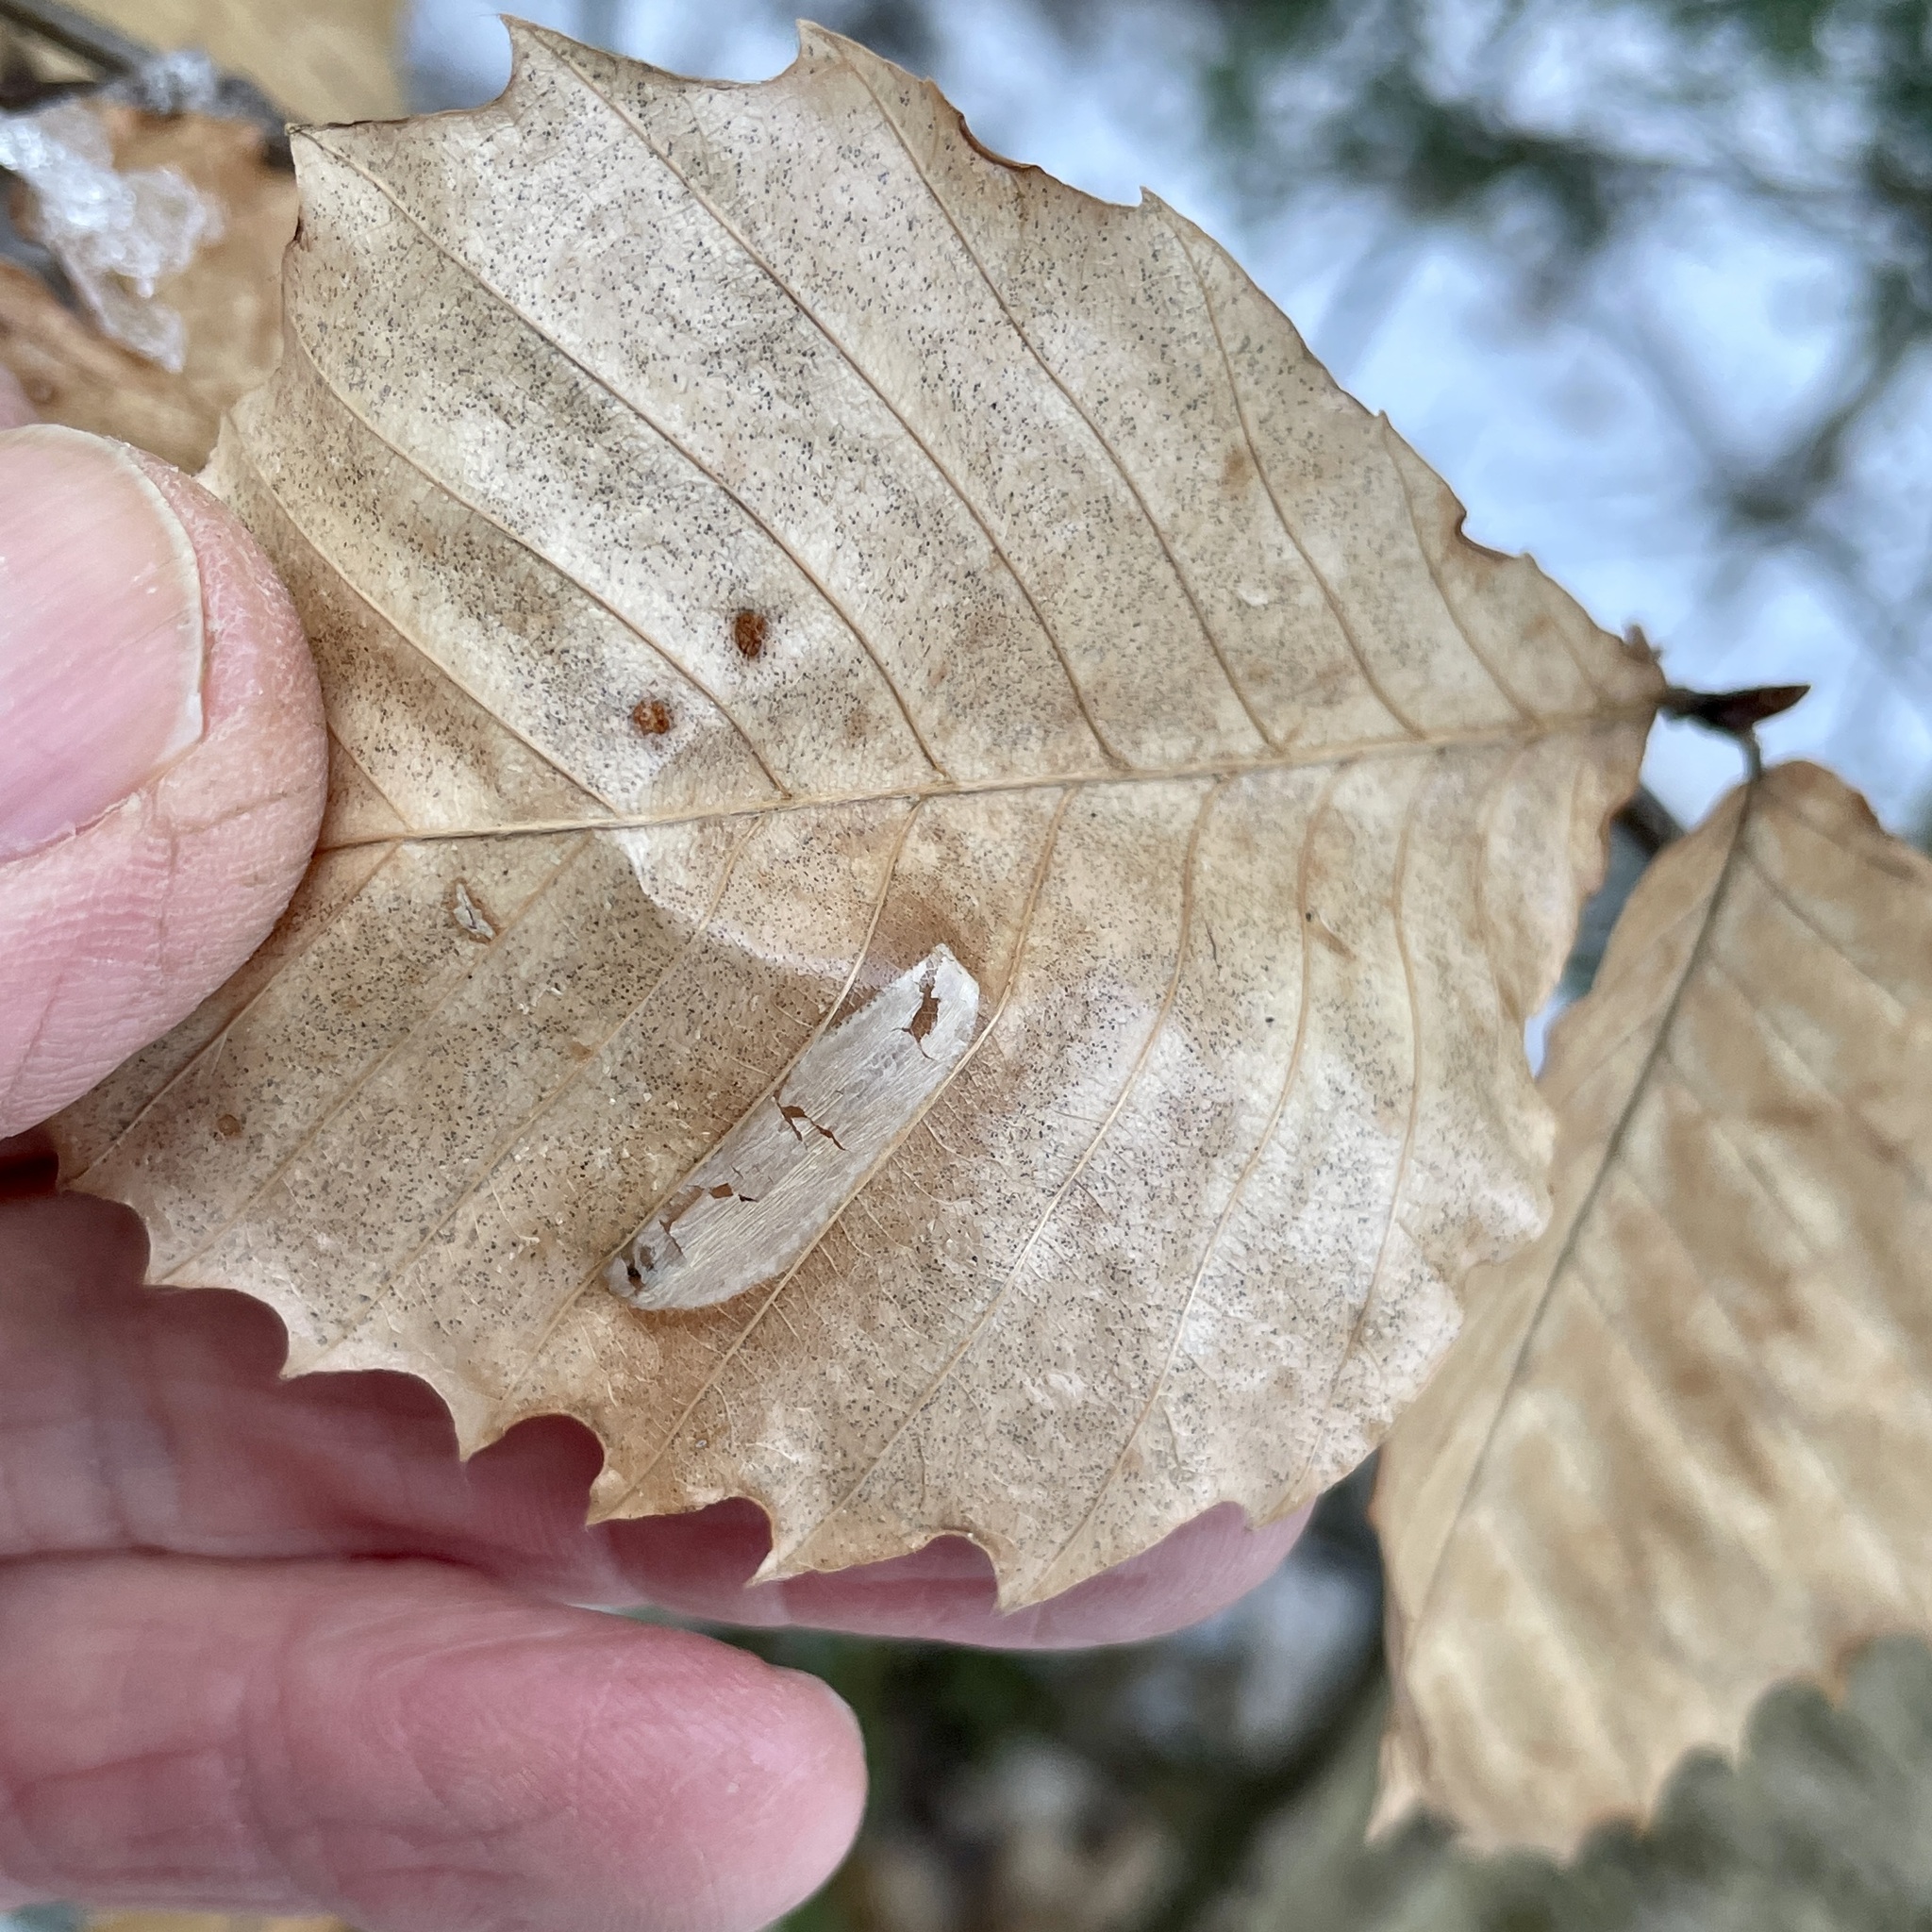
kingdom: Animalia
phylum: Arthropoda
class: Insecta
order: Lepidoptera
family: Gracillariidae
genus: Phyllonorycter
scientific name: Phyllonorycter maestingella
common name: Beech midget
